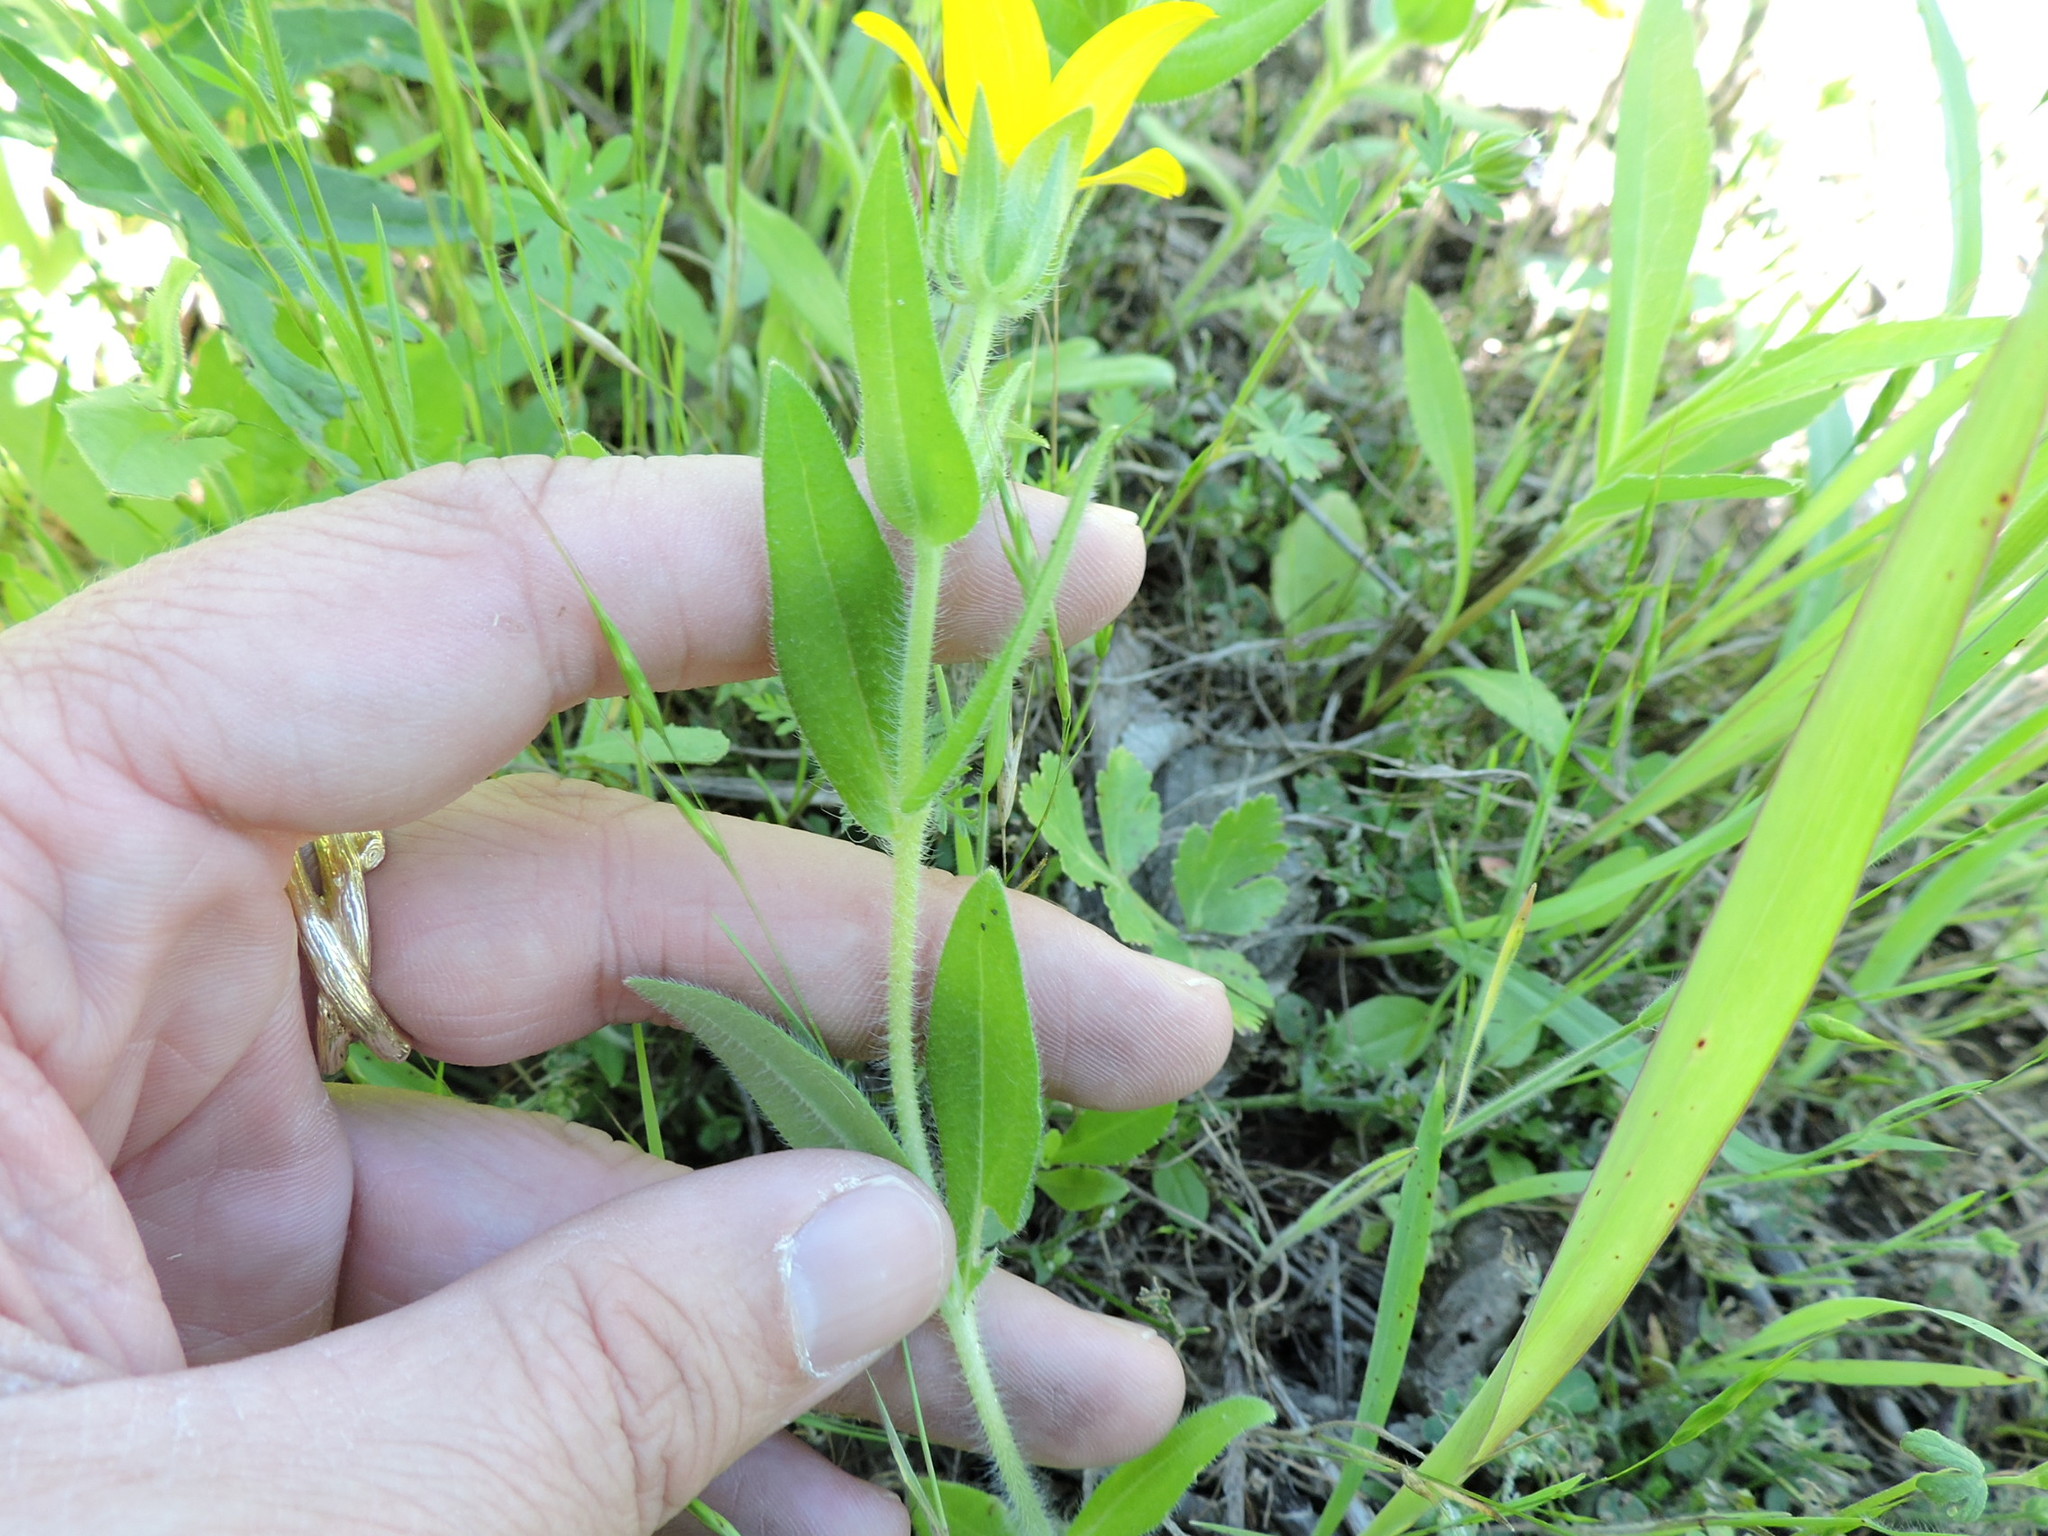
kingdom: Plantae
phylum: Tracheophyta
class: Magnoliopsida
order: Asterales
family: Asteraceae
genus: Lindheimera
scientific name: Lindheimera texana
